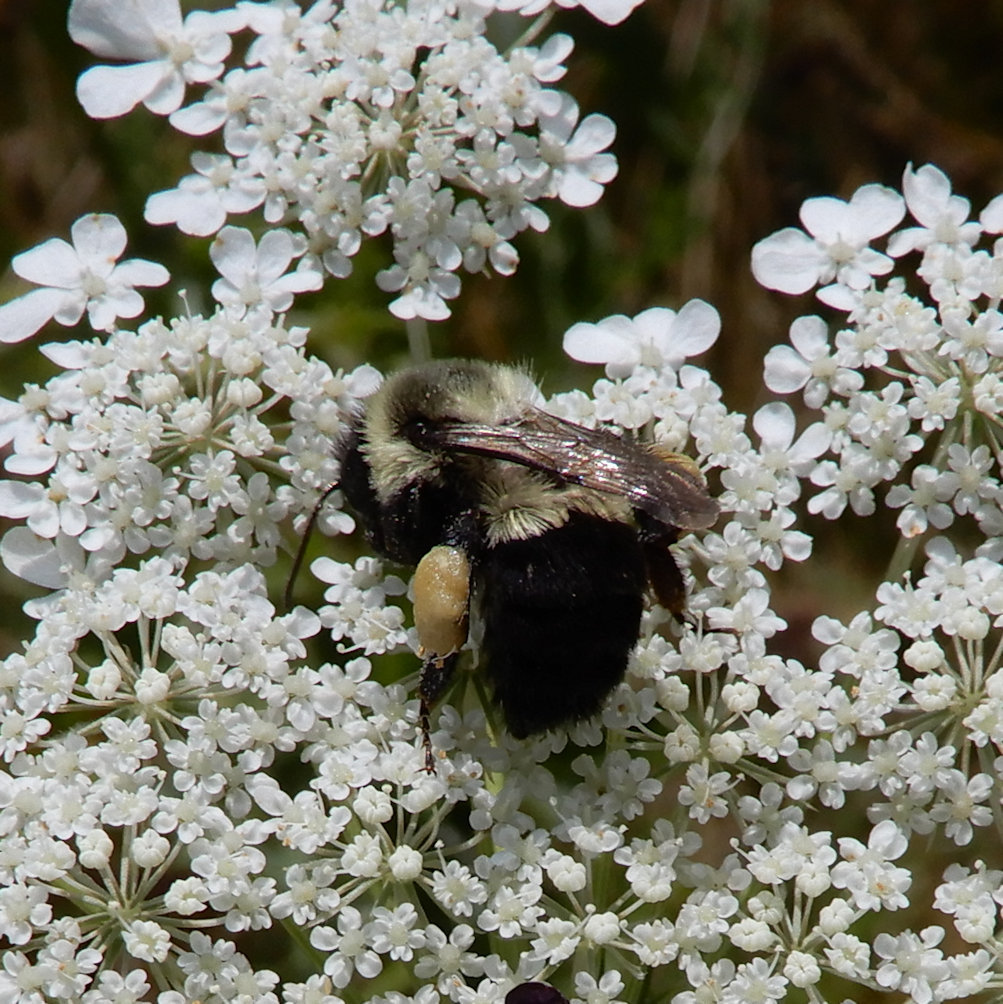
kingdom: Animalia
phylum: Arthropoda
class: Insecta
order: Hymenoptera
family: Apidae
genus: Bombus
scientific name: Bombus impatiens
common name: Common eastern bumble bee
